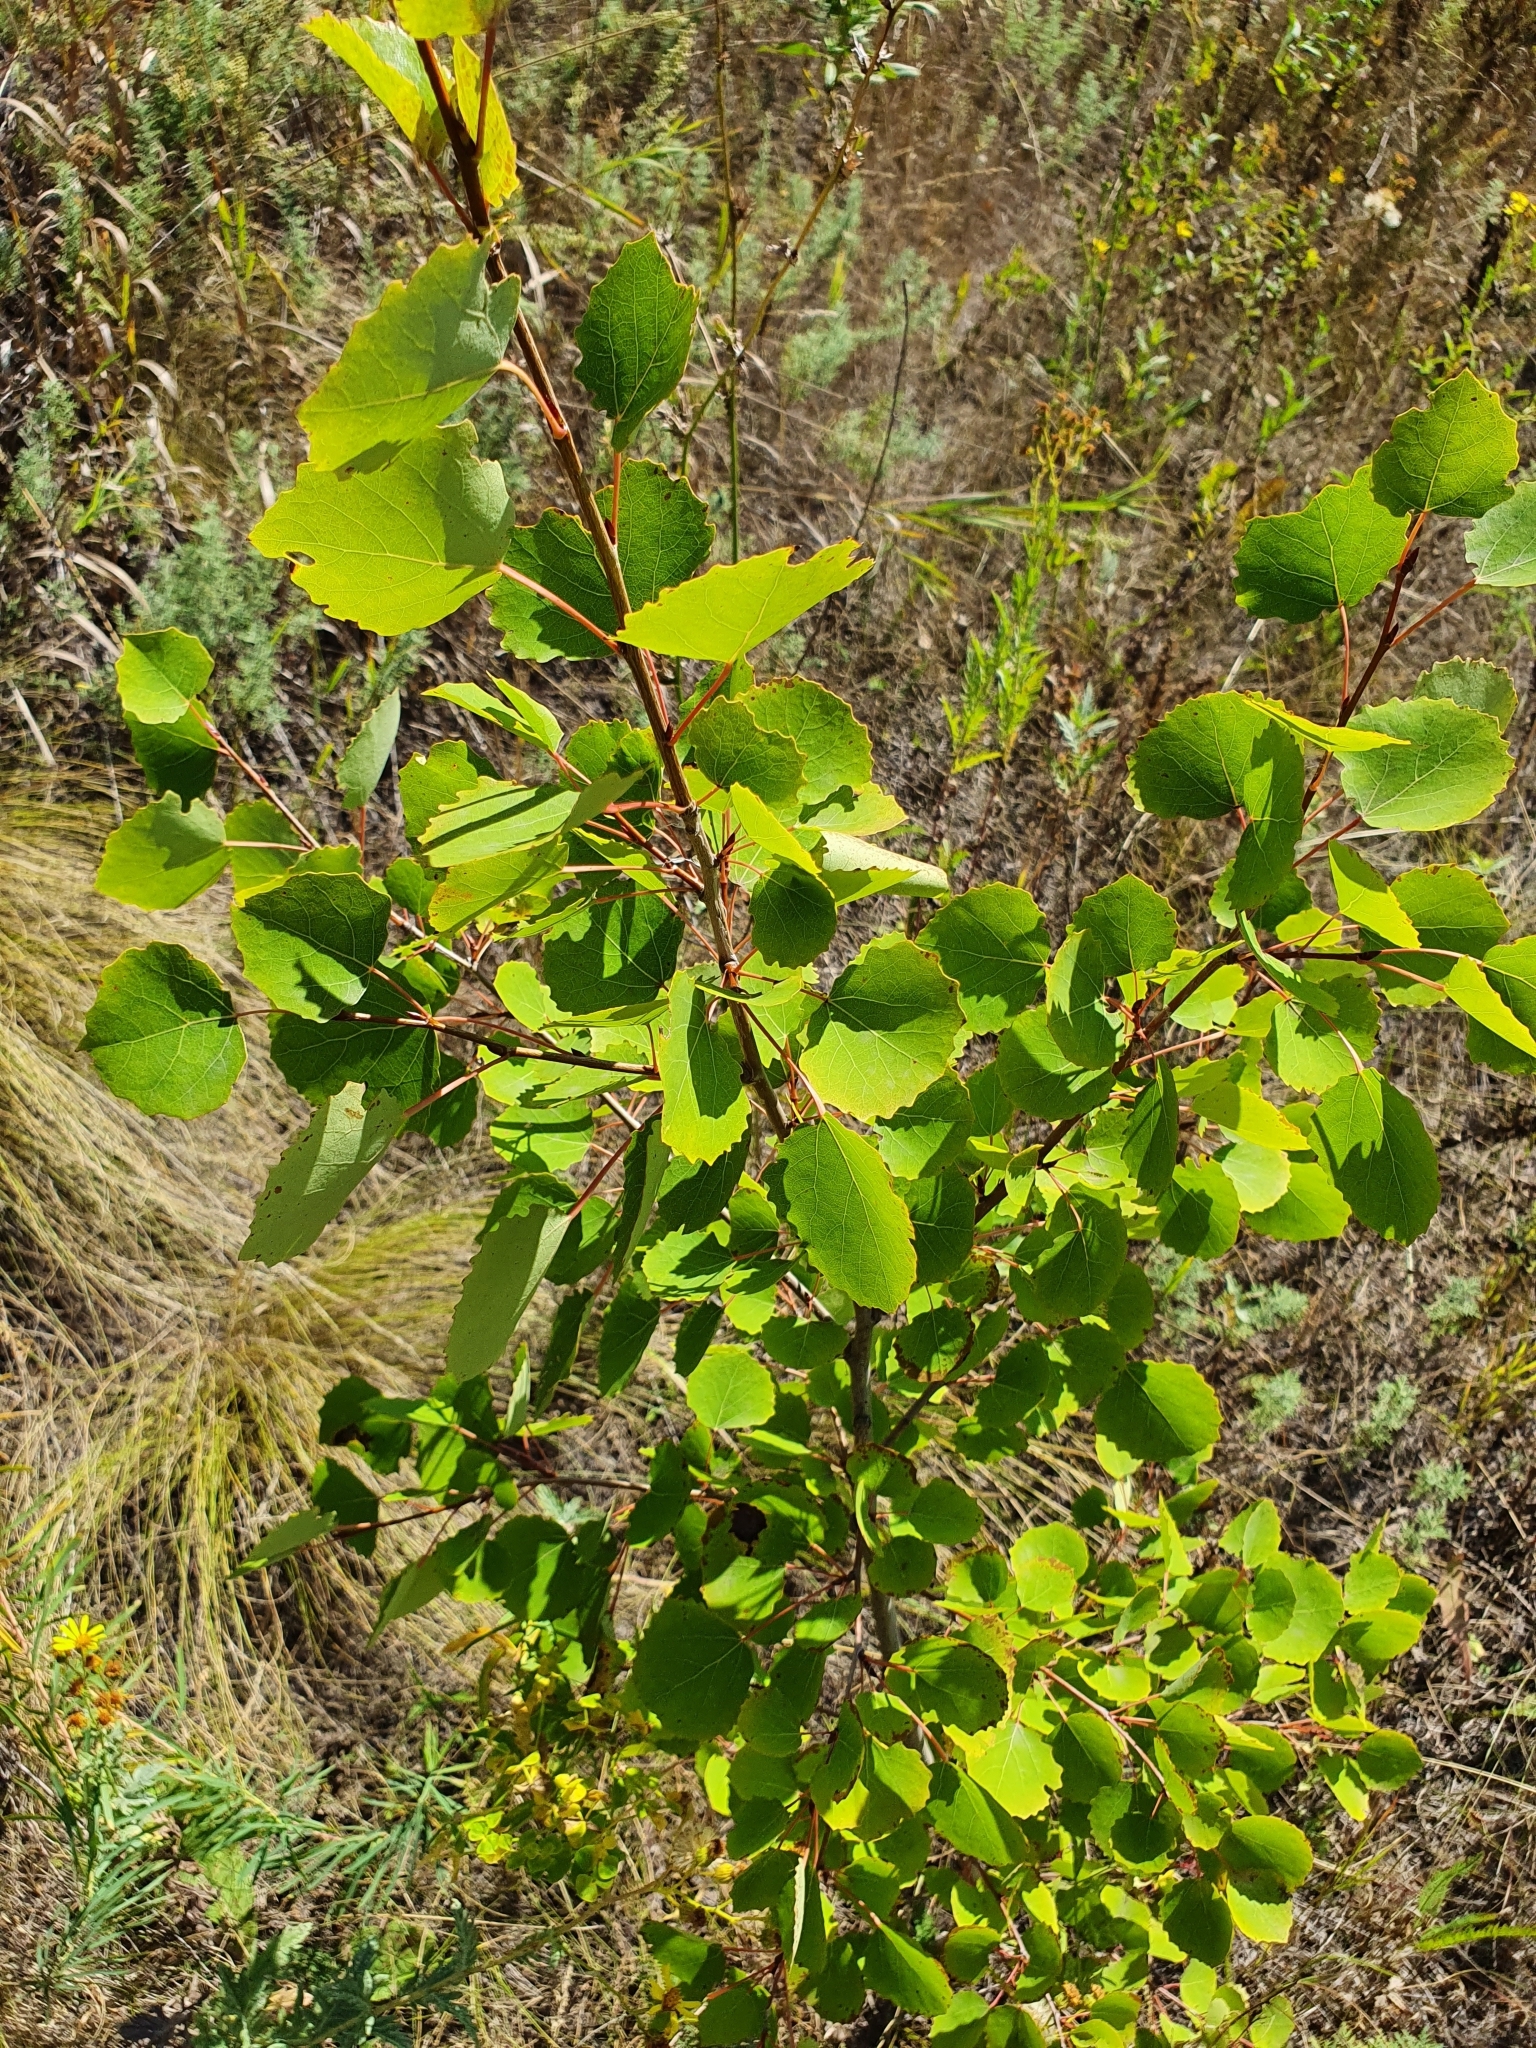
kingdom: Plantae
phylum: Tracheophyta
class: Magnoliopsida
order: Malpighiales
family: Salicaceae
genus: Populus
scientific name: Populus tremula
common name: European aspen
